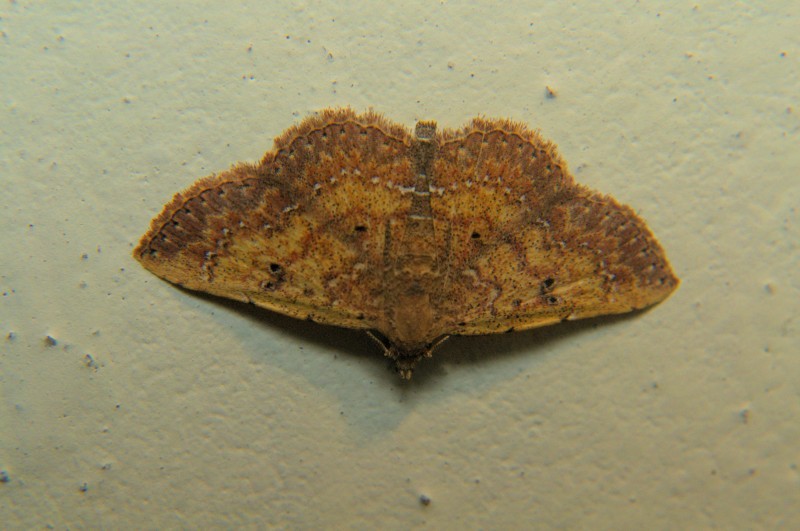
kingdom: Animalia
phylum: Arthropoda
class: Insecta
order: Lepidoptera
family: Noctuidae
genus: Cerynea
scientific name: Cerynea punctilinealis
